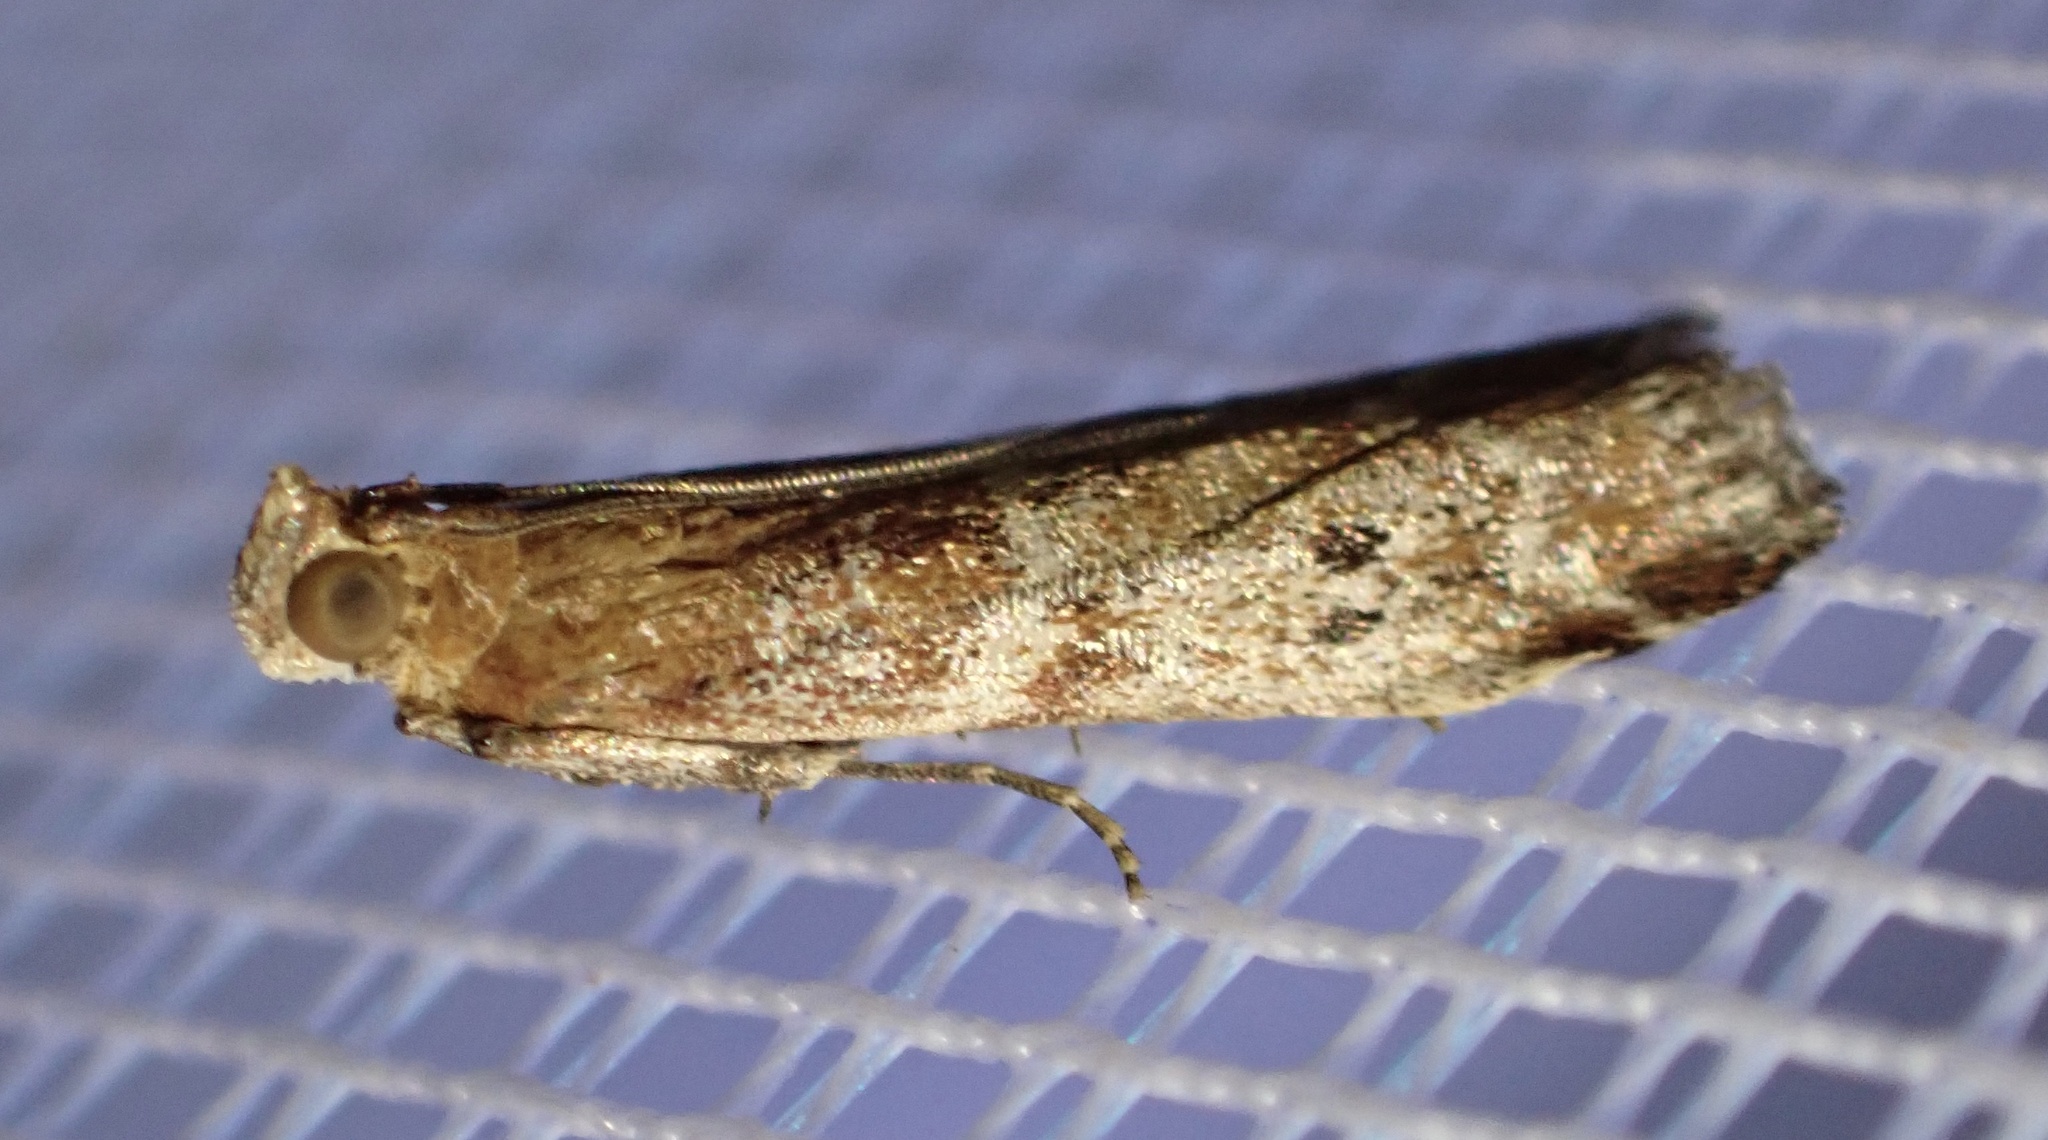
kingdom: Animalia
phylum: Arthropoda
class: Insecta
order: Lepidoptera
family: Pyralidae
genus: Delplanqueia
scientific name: Delplanqueia inscriptella
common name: Brown powdered knot-horn
